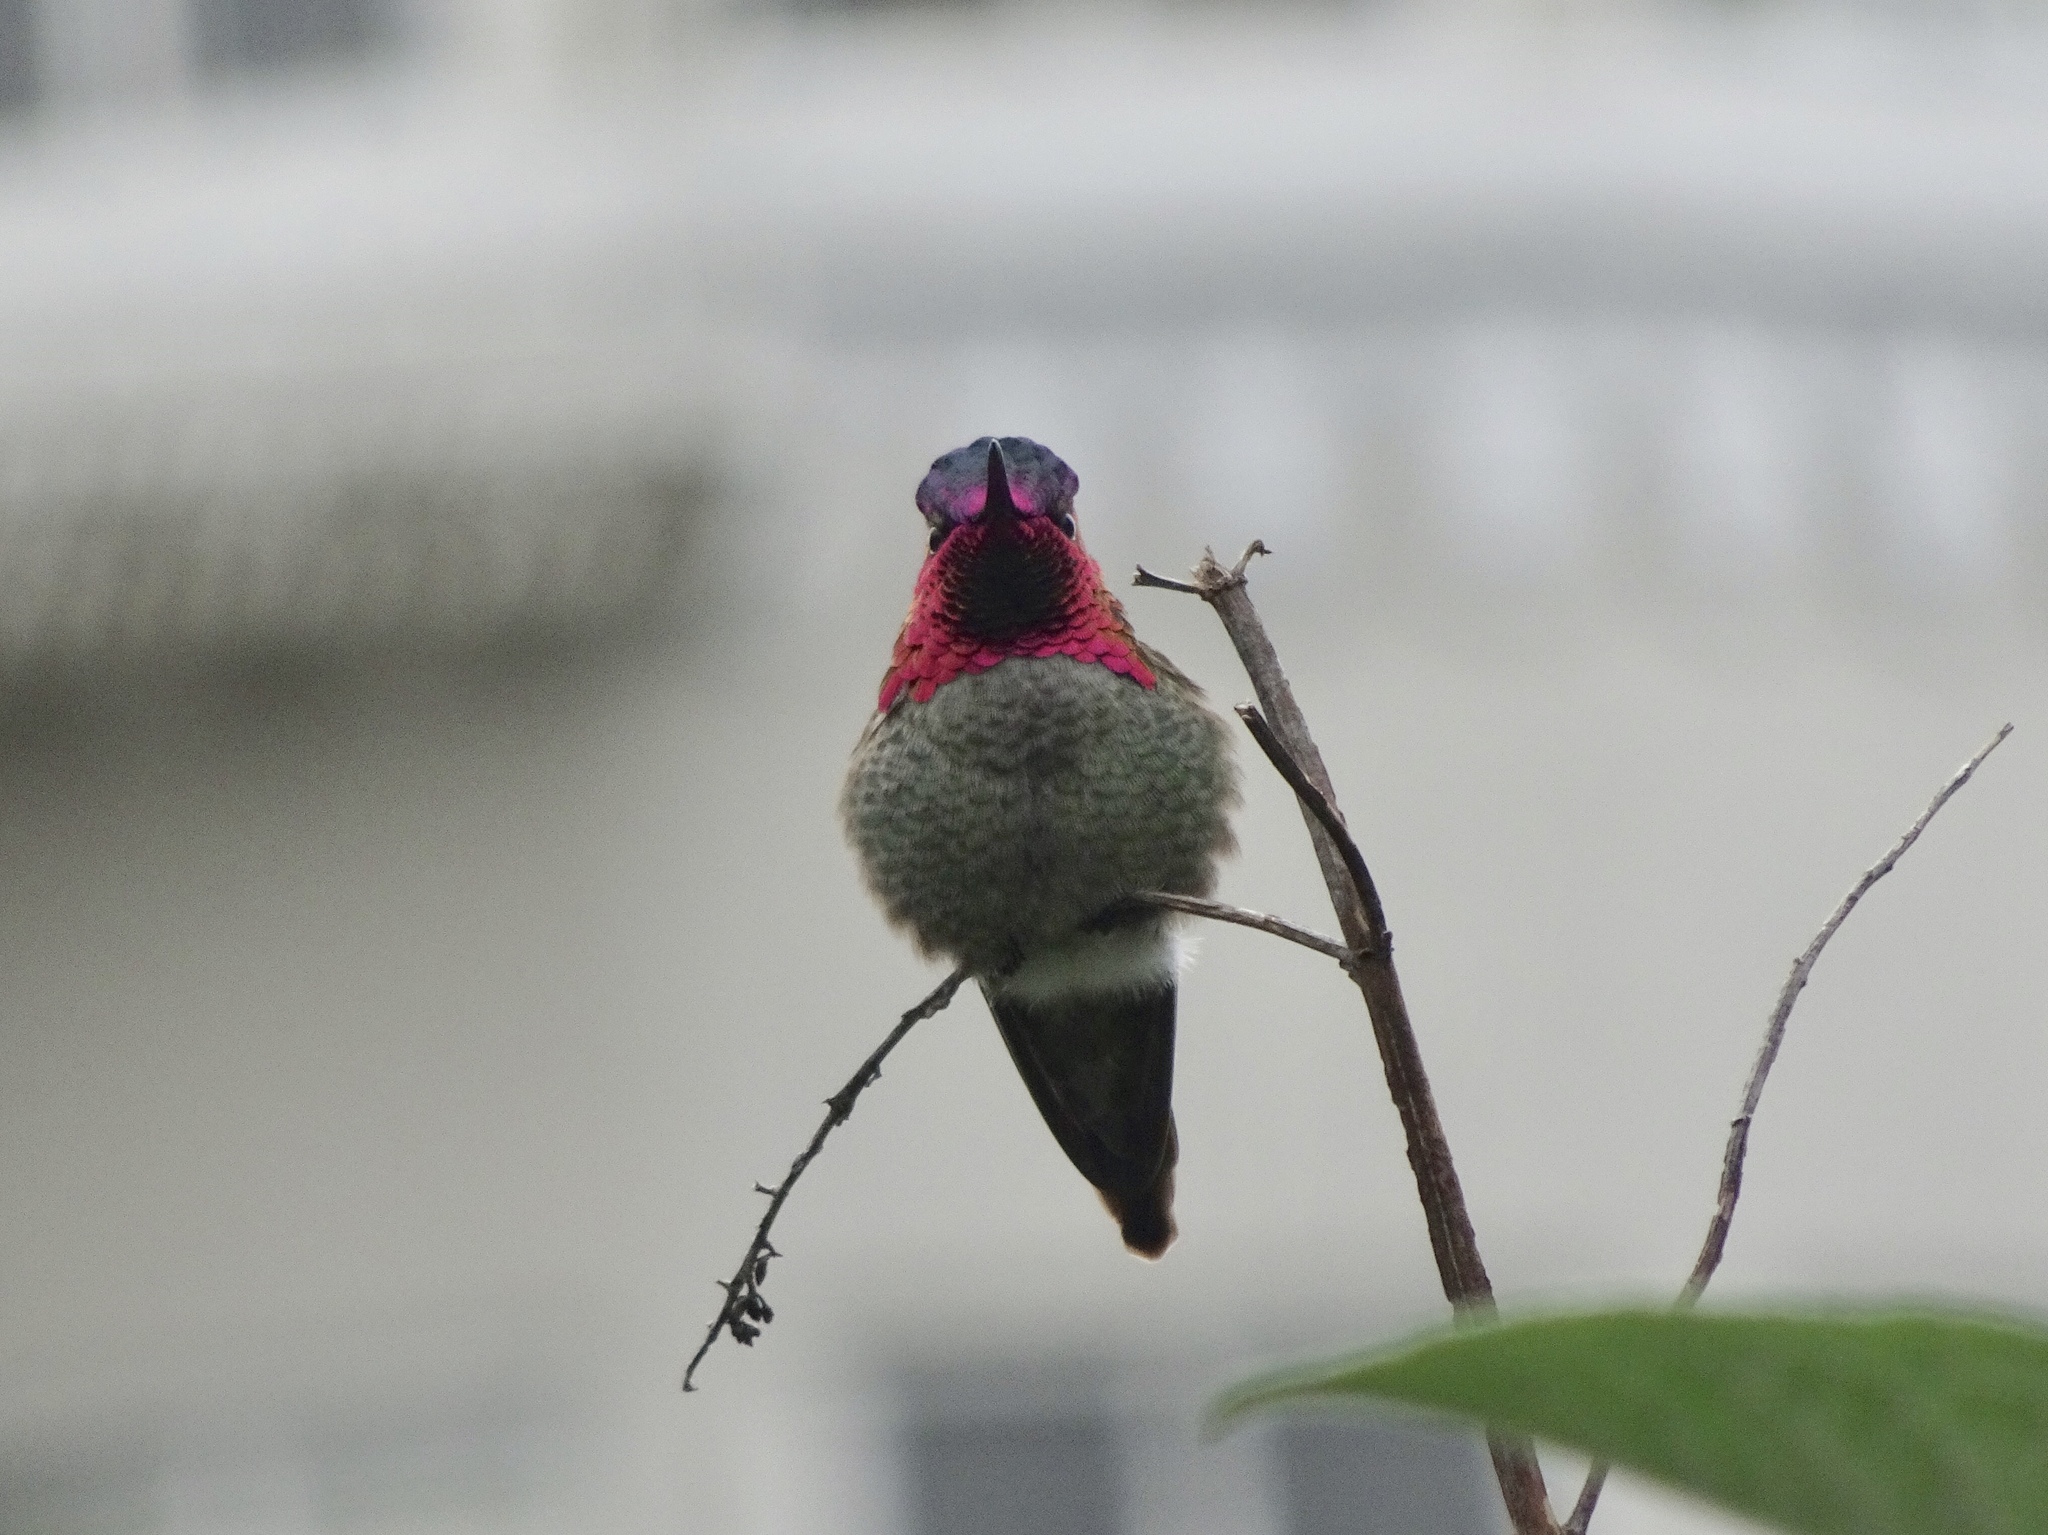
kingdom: Animalia
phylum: Chordata
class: Aves
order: Apodiformes
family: Trochilidae
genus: Calypte
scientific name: Calypte anna
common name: Anna's hummingbird
